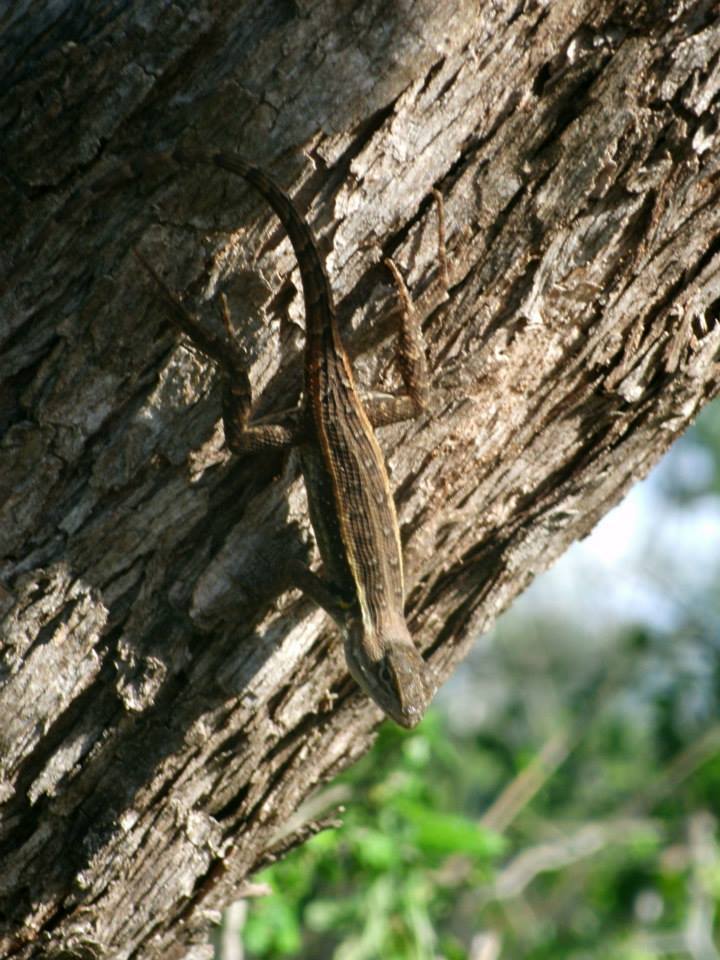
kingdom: Animalia
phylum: Chordata
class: Squamata
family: Phrynosomatidae
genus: Sceloporus
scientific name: Sceloporus variabilis
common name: Rosebelly lizard
